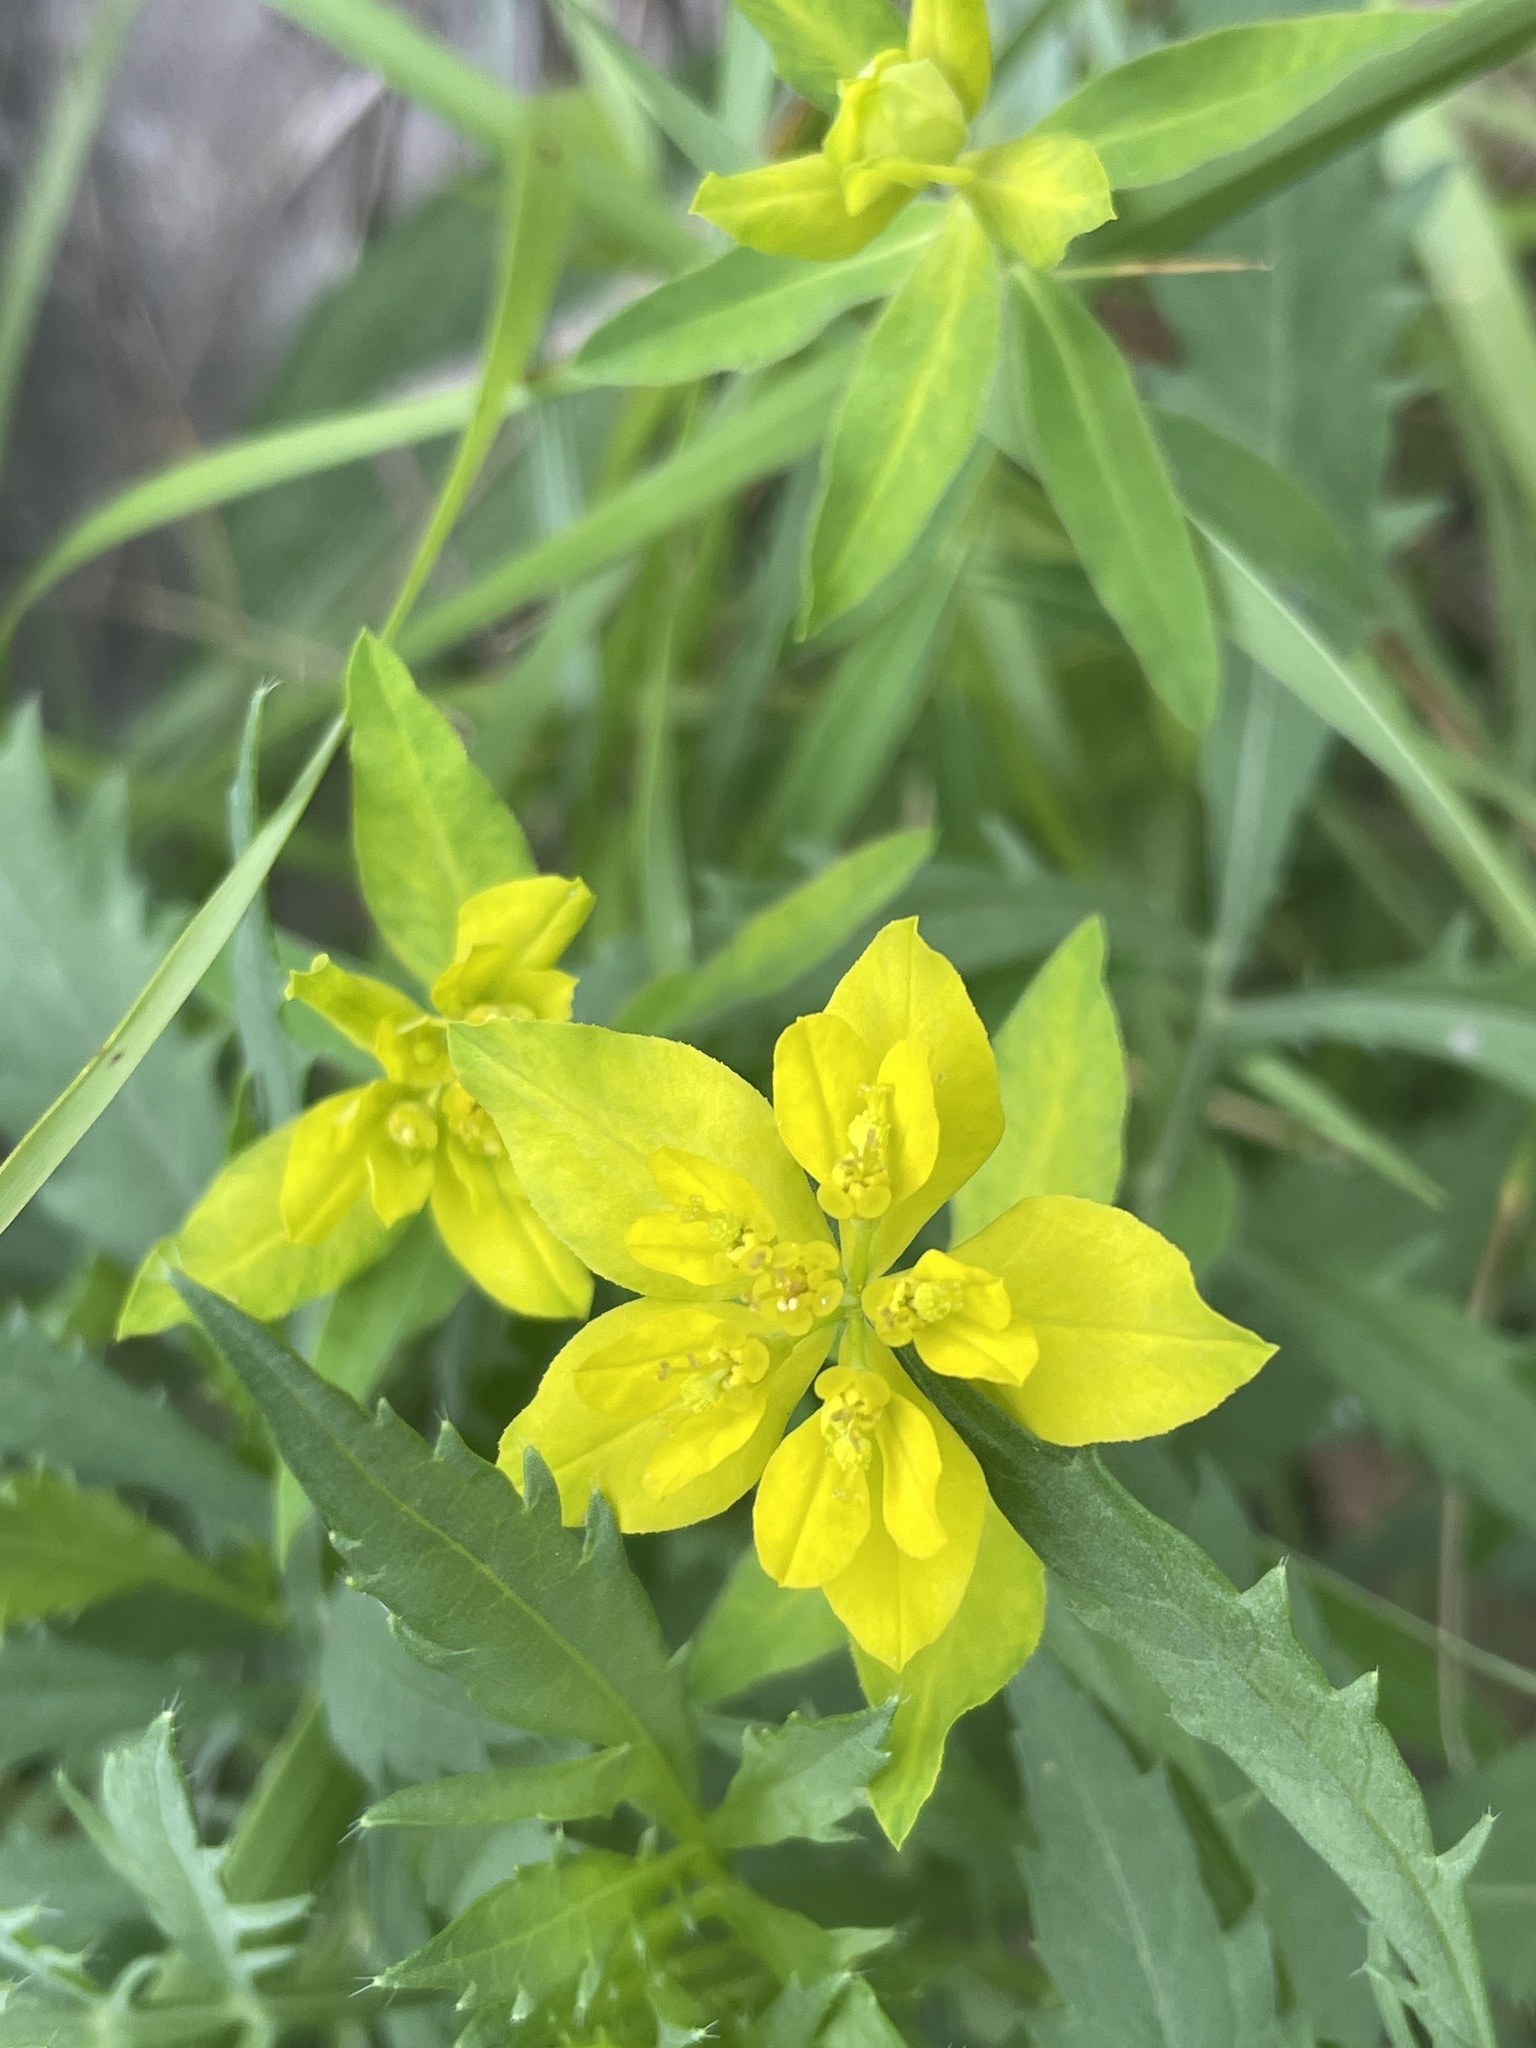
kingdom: Plantae
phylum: Tracheophyta
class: Magnoliopsida
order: Malpighiales
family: Euphorbiaceae
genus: Euphorbia
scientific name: Euphorbia verrucosa
